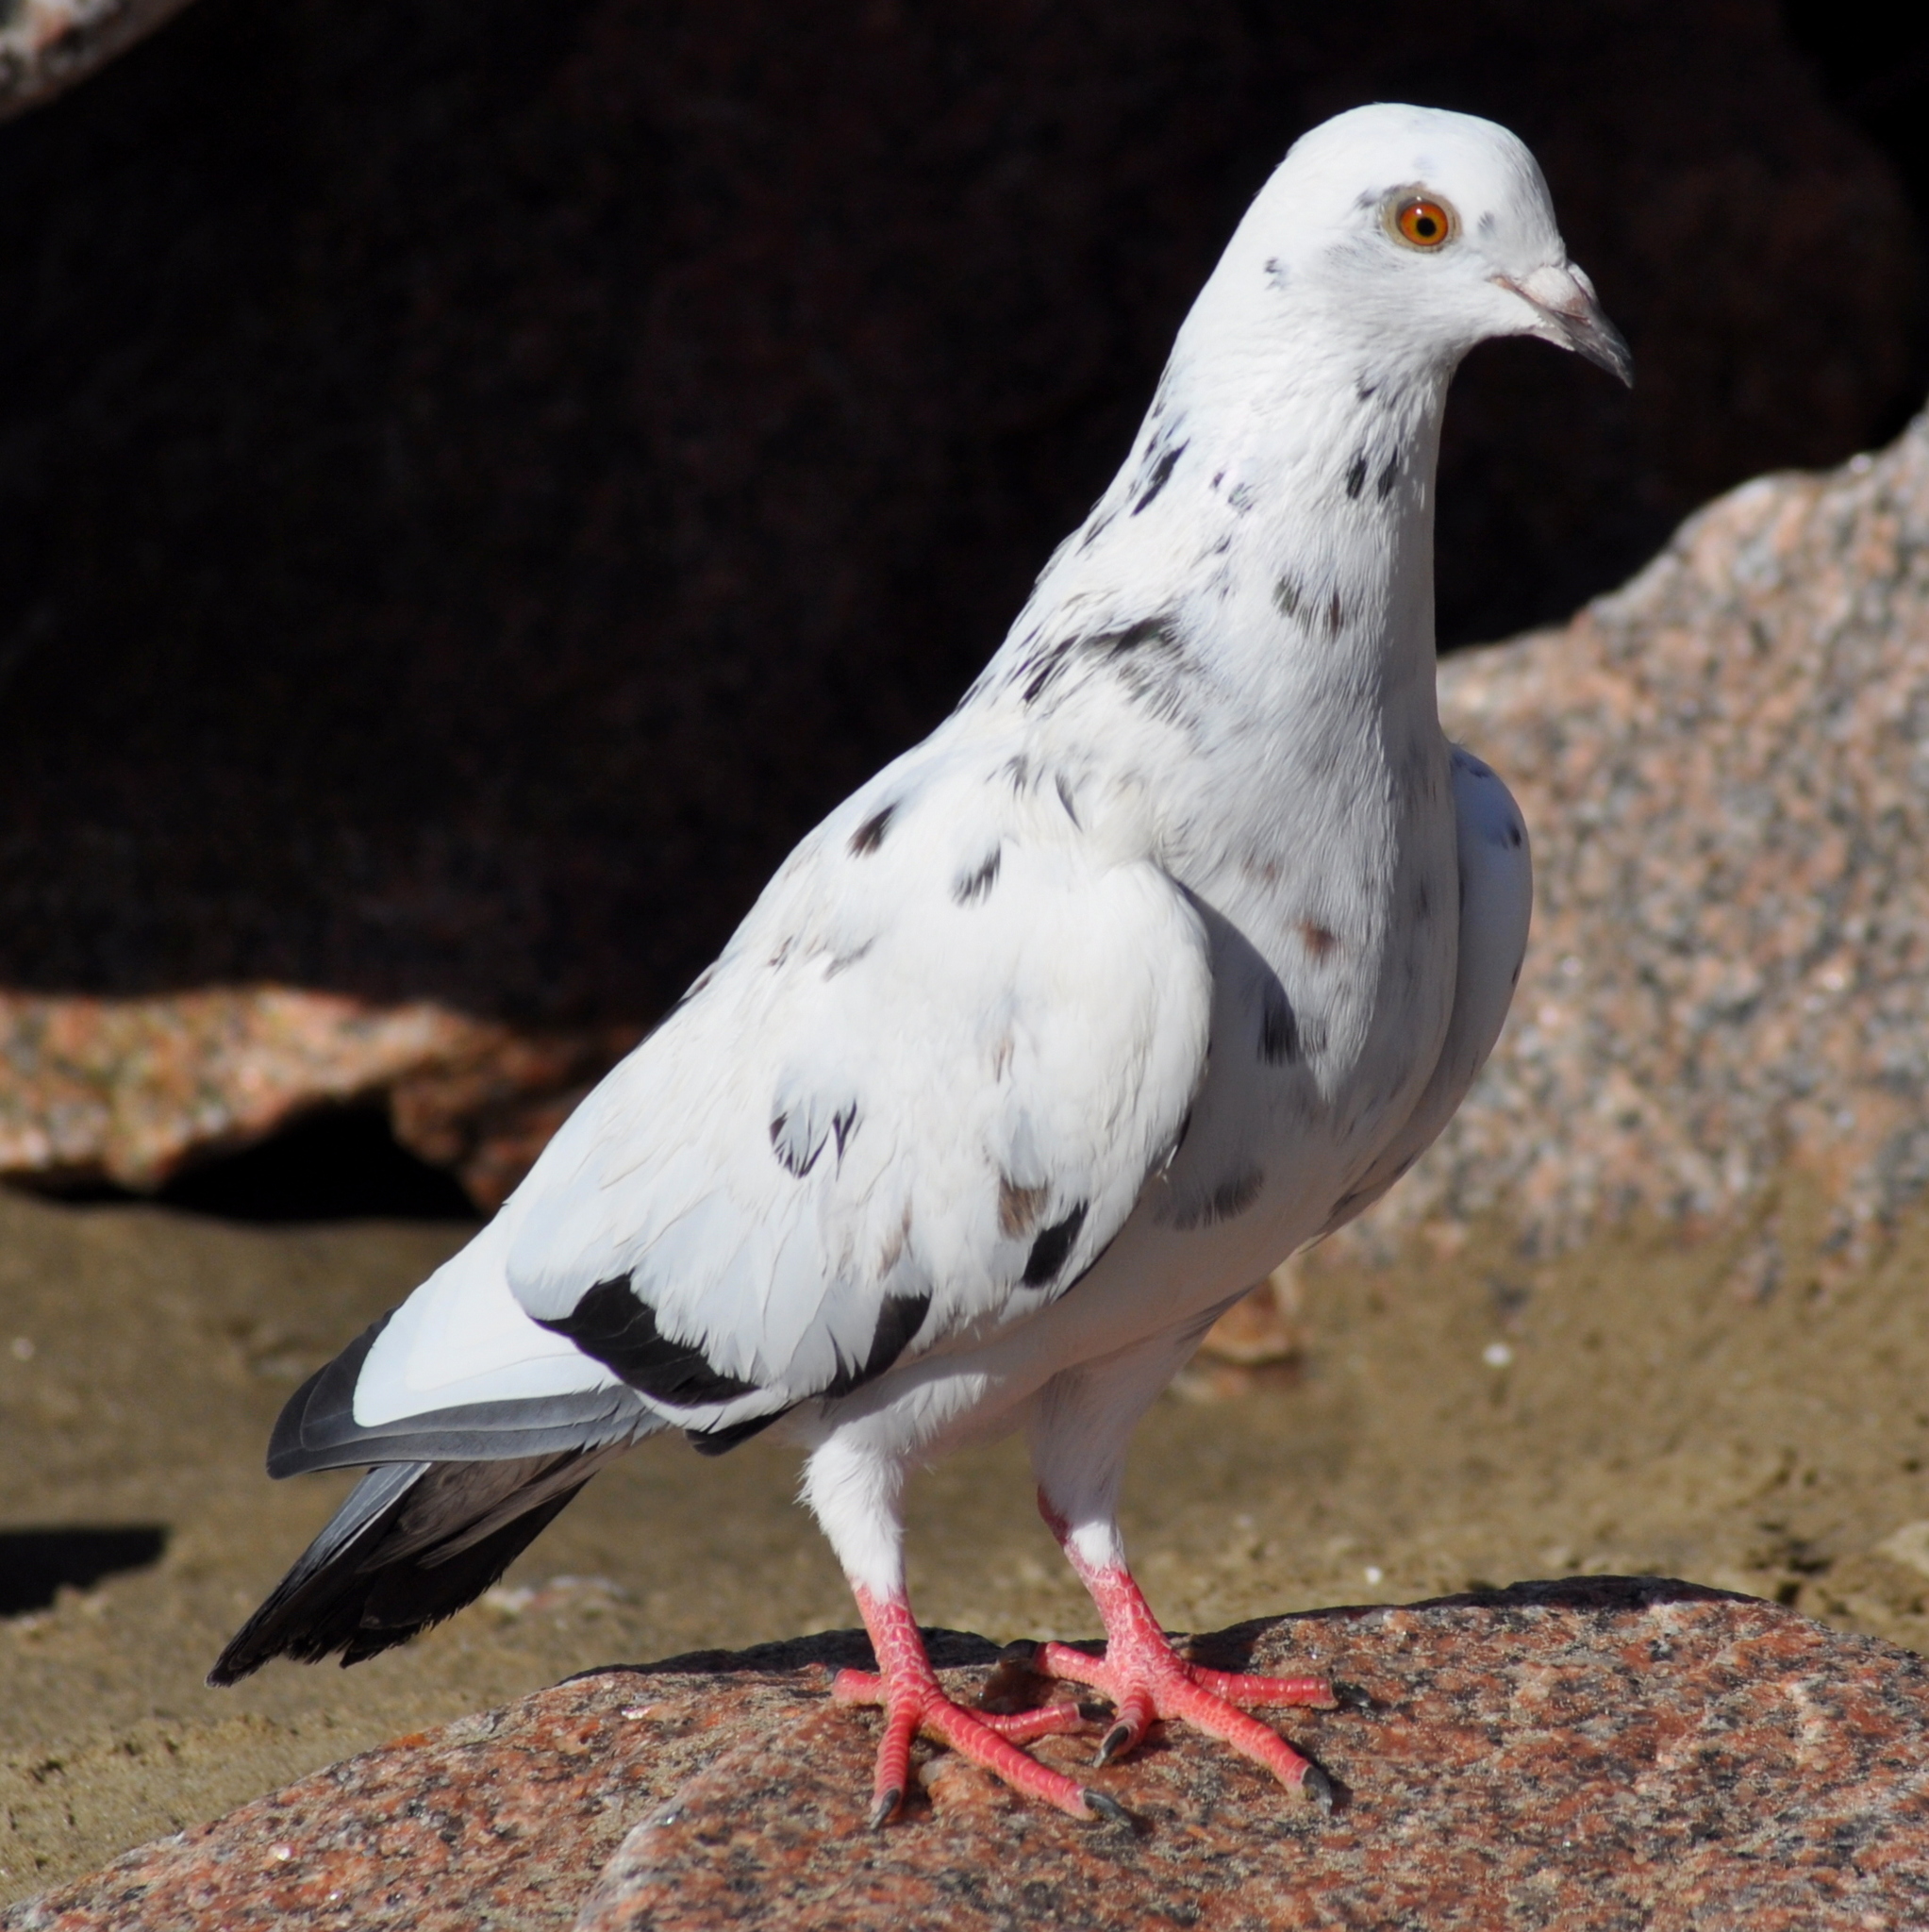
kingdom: Animalia
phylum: Chordata
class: Aves
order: Columbiformes
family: Columbidae
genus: Columba
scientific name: Columba livia
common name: Rock pigeon
